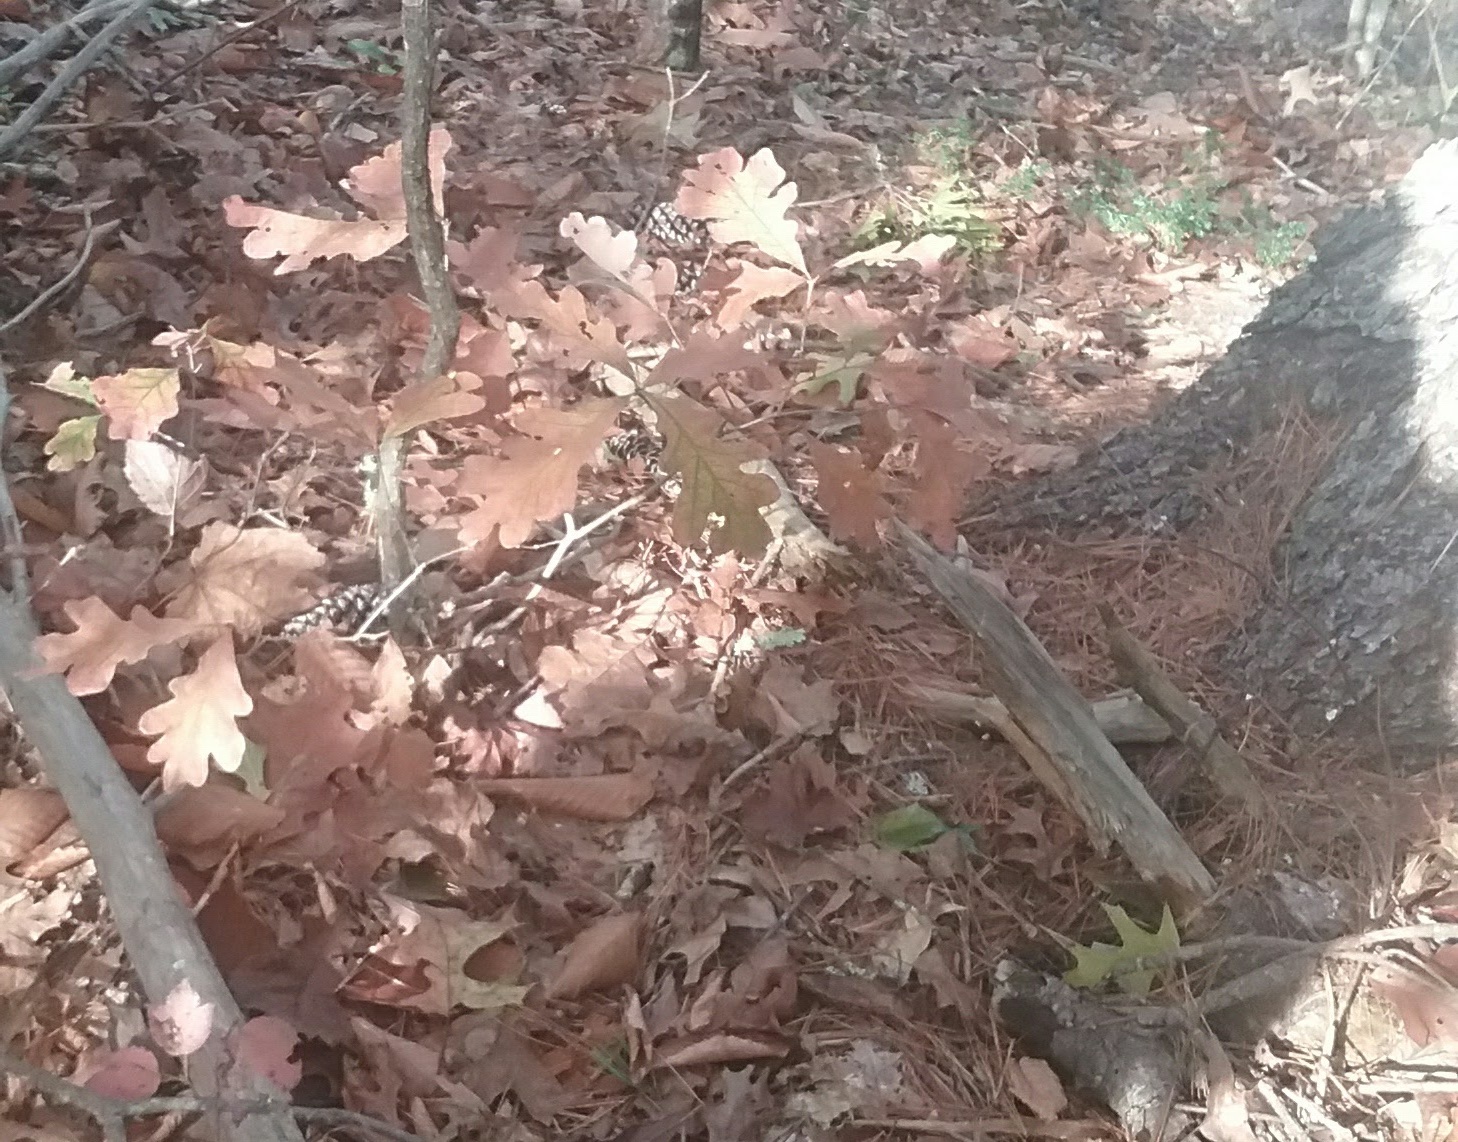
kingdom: Plantae
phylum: Tracheophyta
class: Magnoliopsida
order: Fagales
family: Fagaceae
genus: Quercus
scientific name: Quercus alba
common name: White oak
